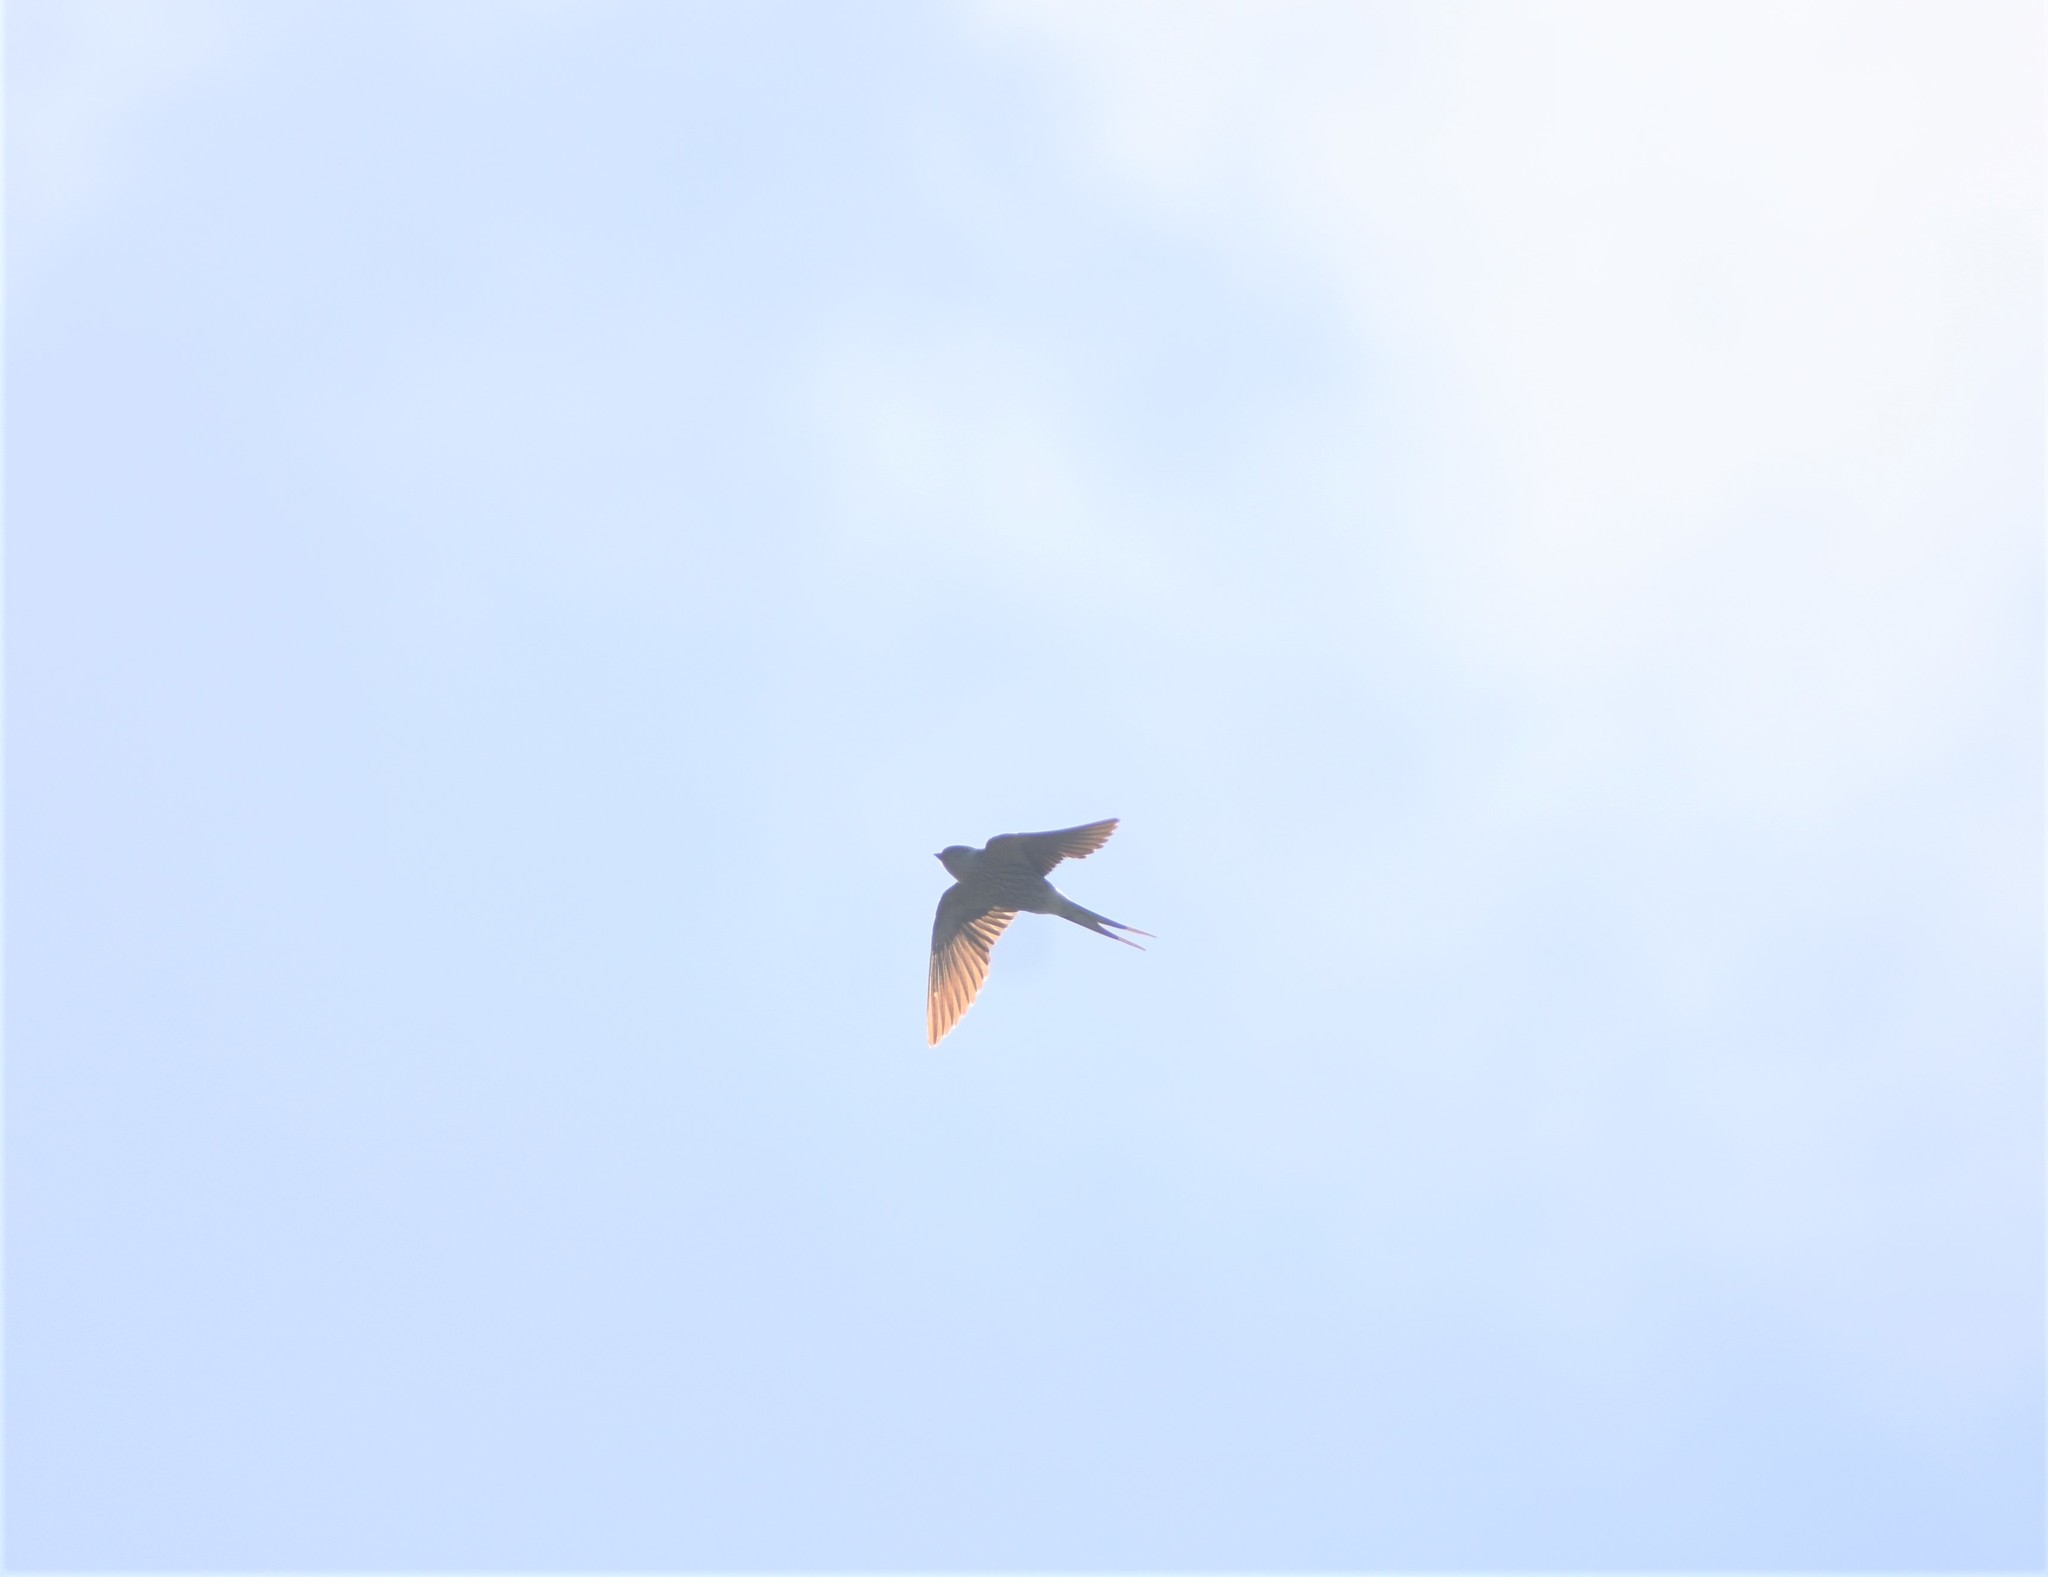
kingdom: Animalia
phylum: Chordata
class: Aves
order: Passeriformes
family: Hirundinidae
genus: Cecropis
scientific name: Cecropis cucullata
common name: Greater striped-swallow
